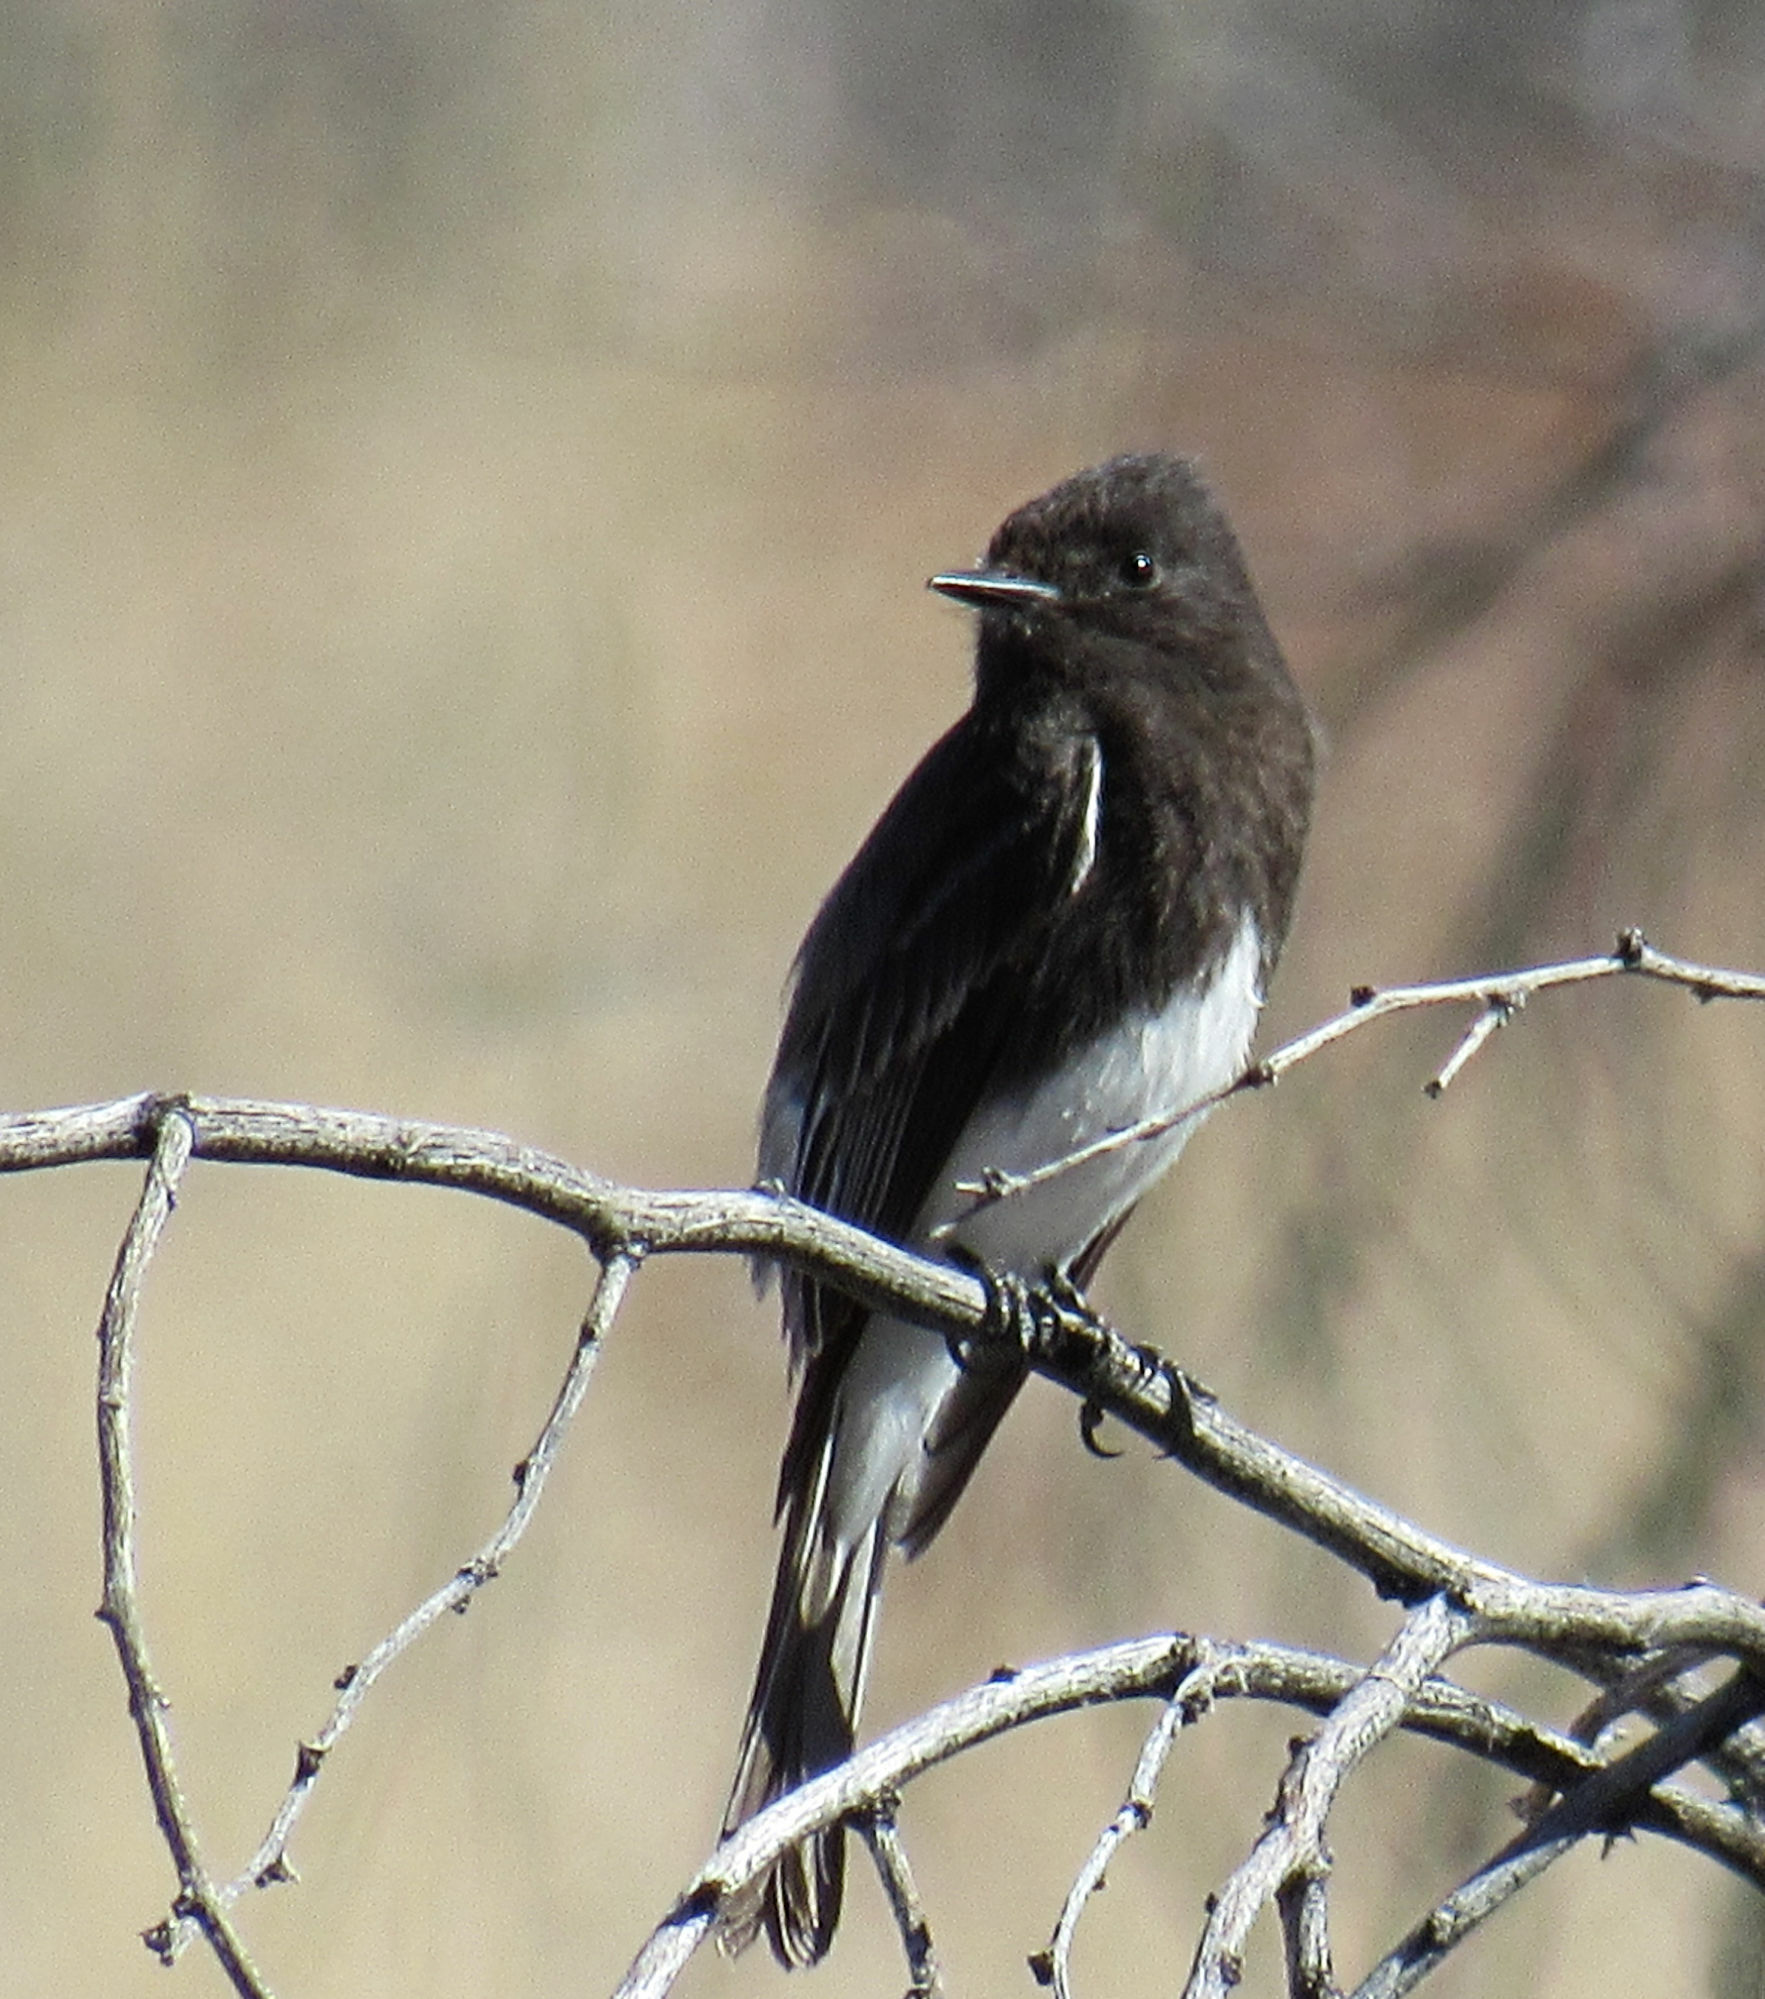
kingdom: Animalia
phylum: Chordata
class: Aves
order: Passeriformes
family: Tyrannidae
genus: Sayornis
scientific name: Sayornis nigricans
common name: Black phoebe
